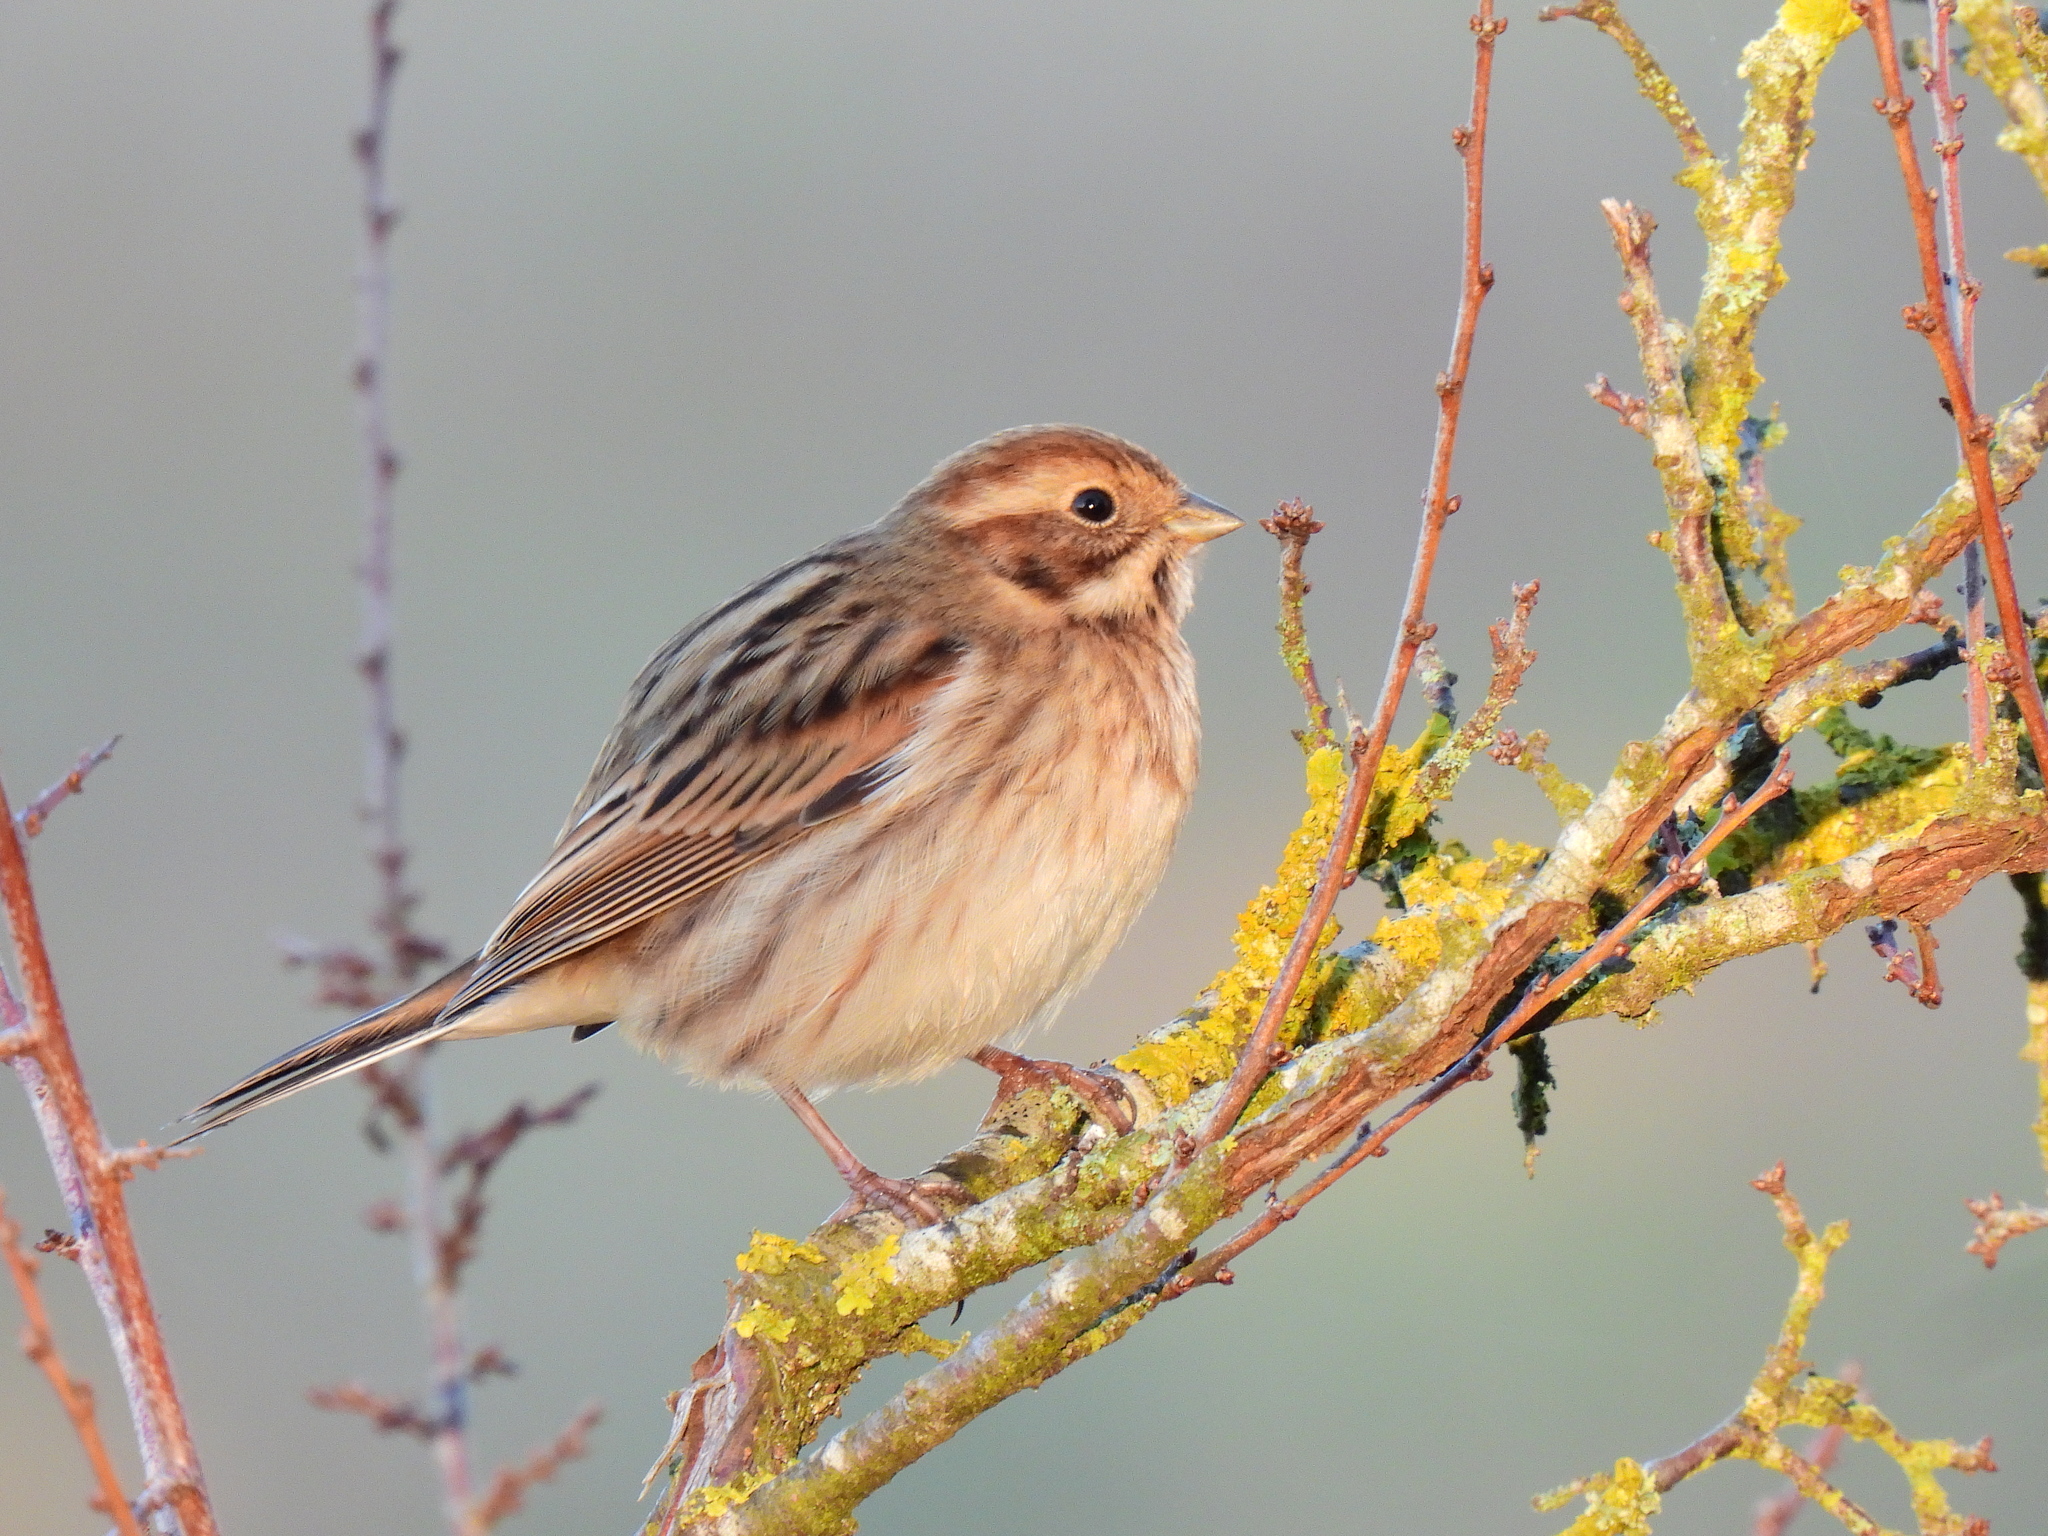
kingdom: Animalia
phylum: Chordata
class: Aves
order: Passeriformes
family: Emberizidae
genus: Emberiza
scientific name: Emberiza schoeniclus
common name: Reed bunting
